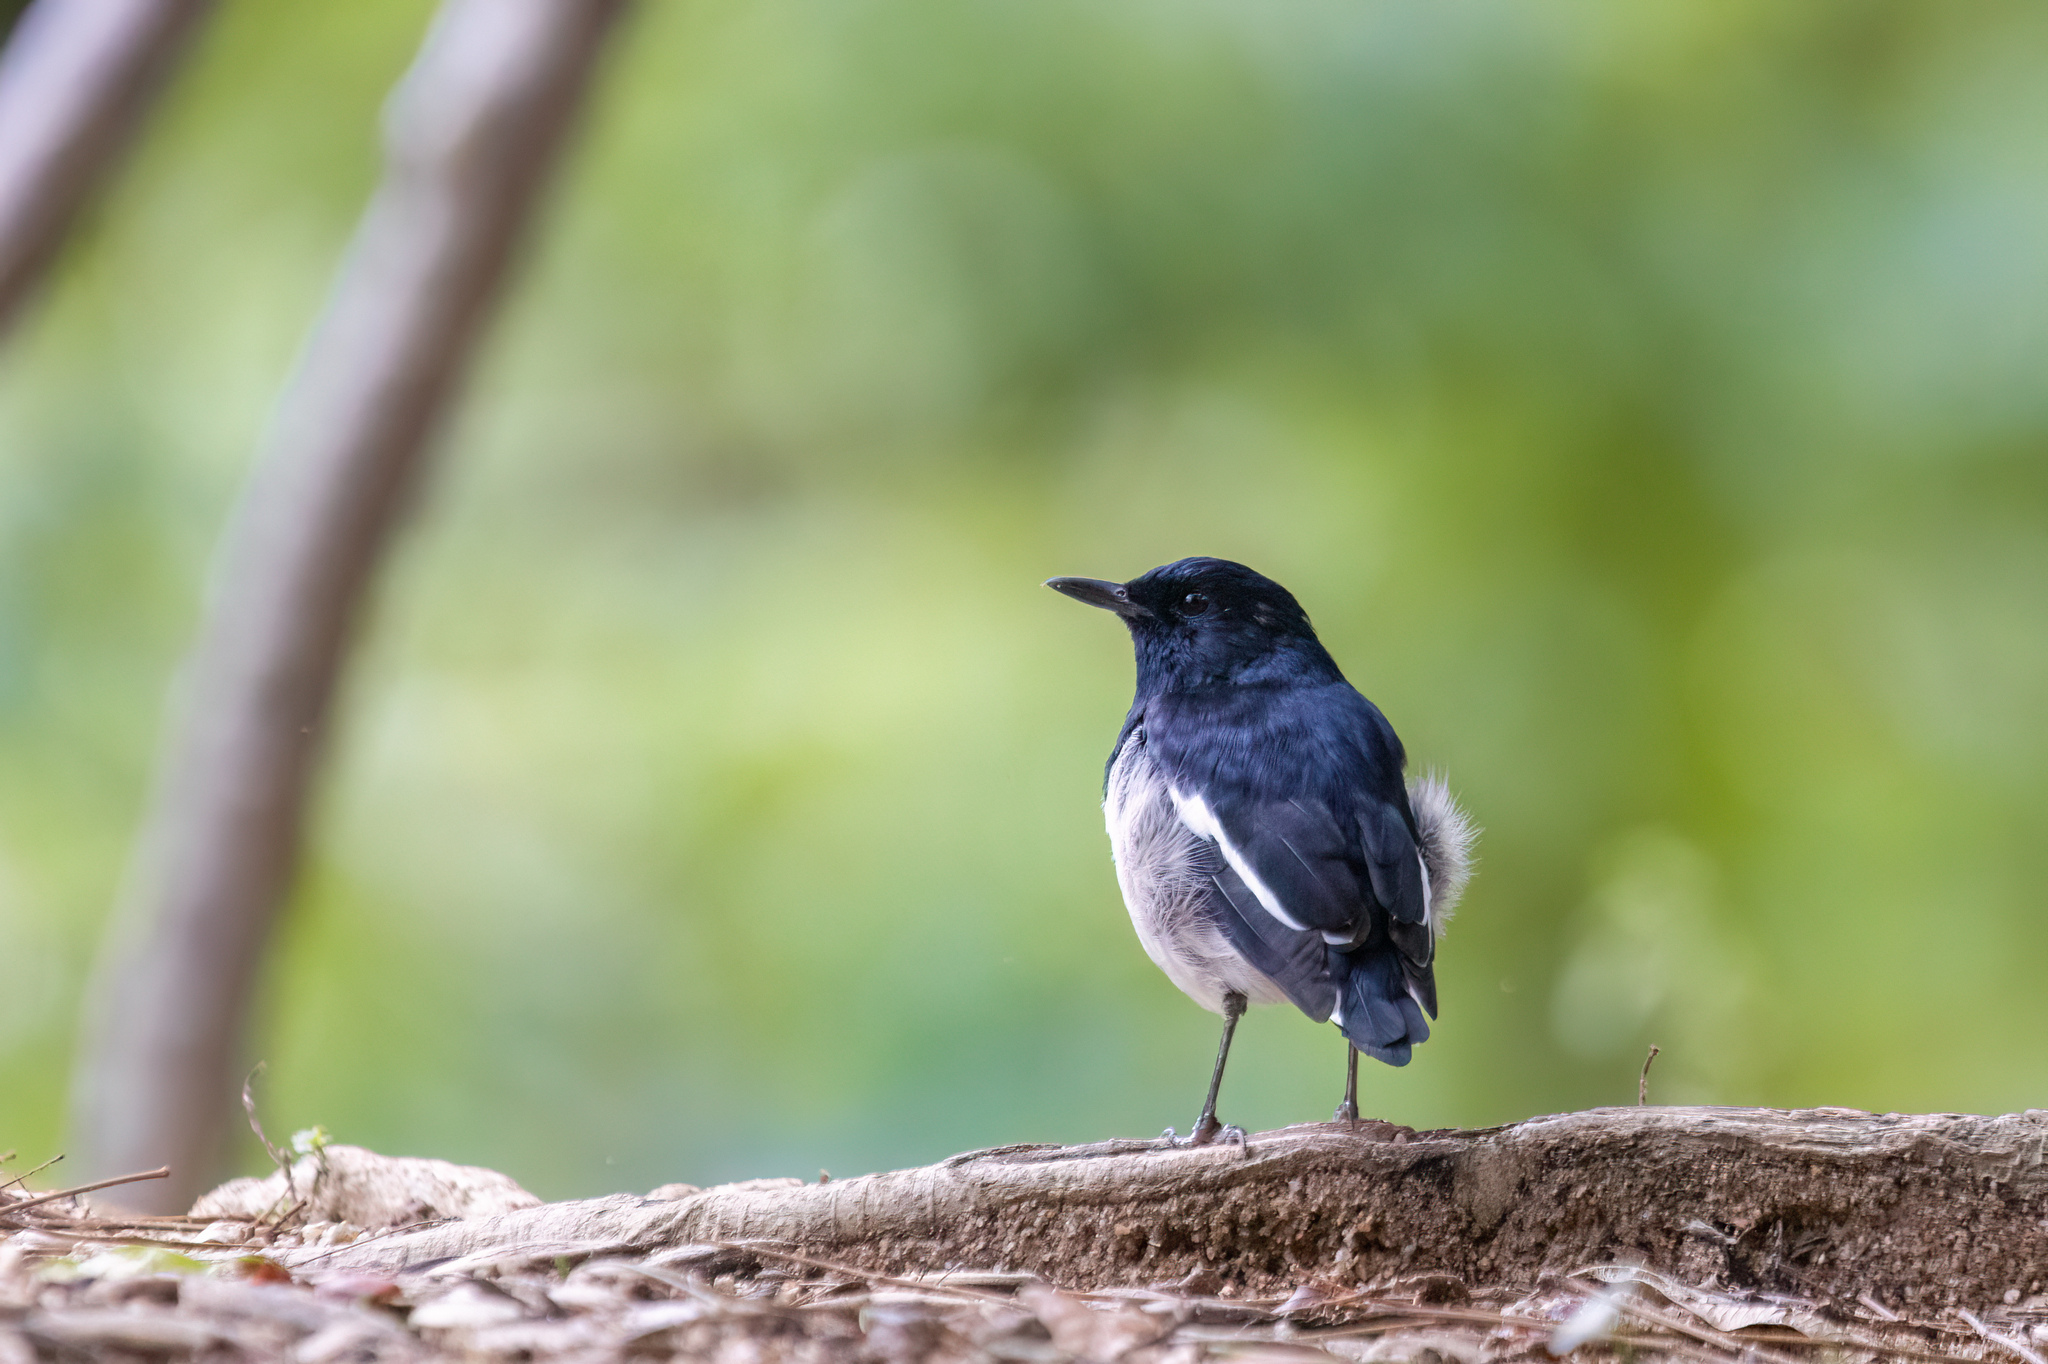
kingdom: Animalia
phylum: Chordata
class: Aves
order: Passeriformes
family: Muscicapidae
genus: Copsychus
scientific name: Copsychus saularis
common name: Oriental magpie-robin
